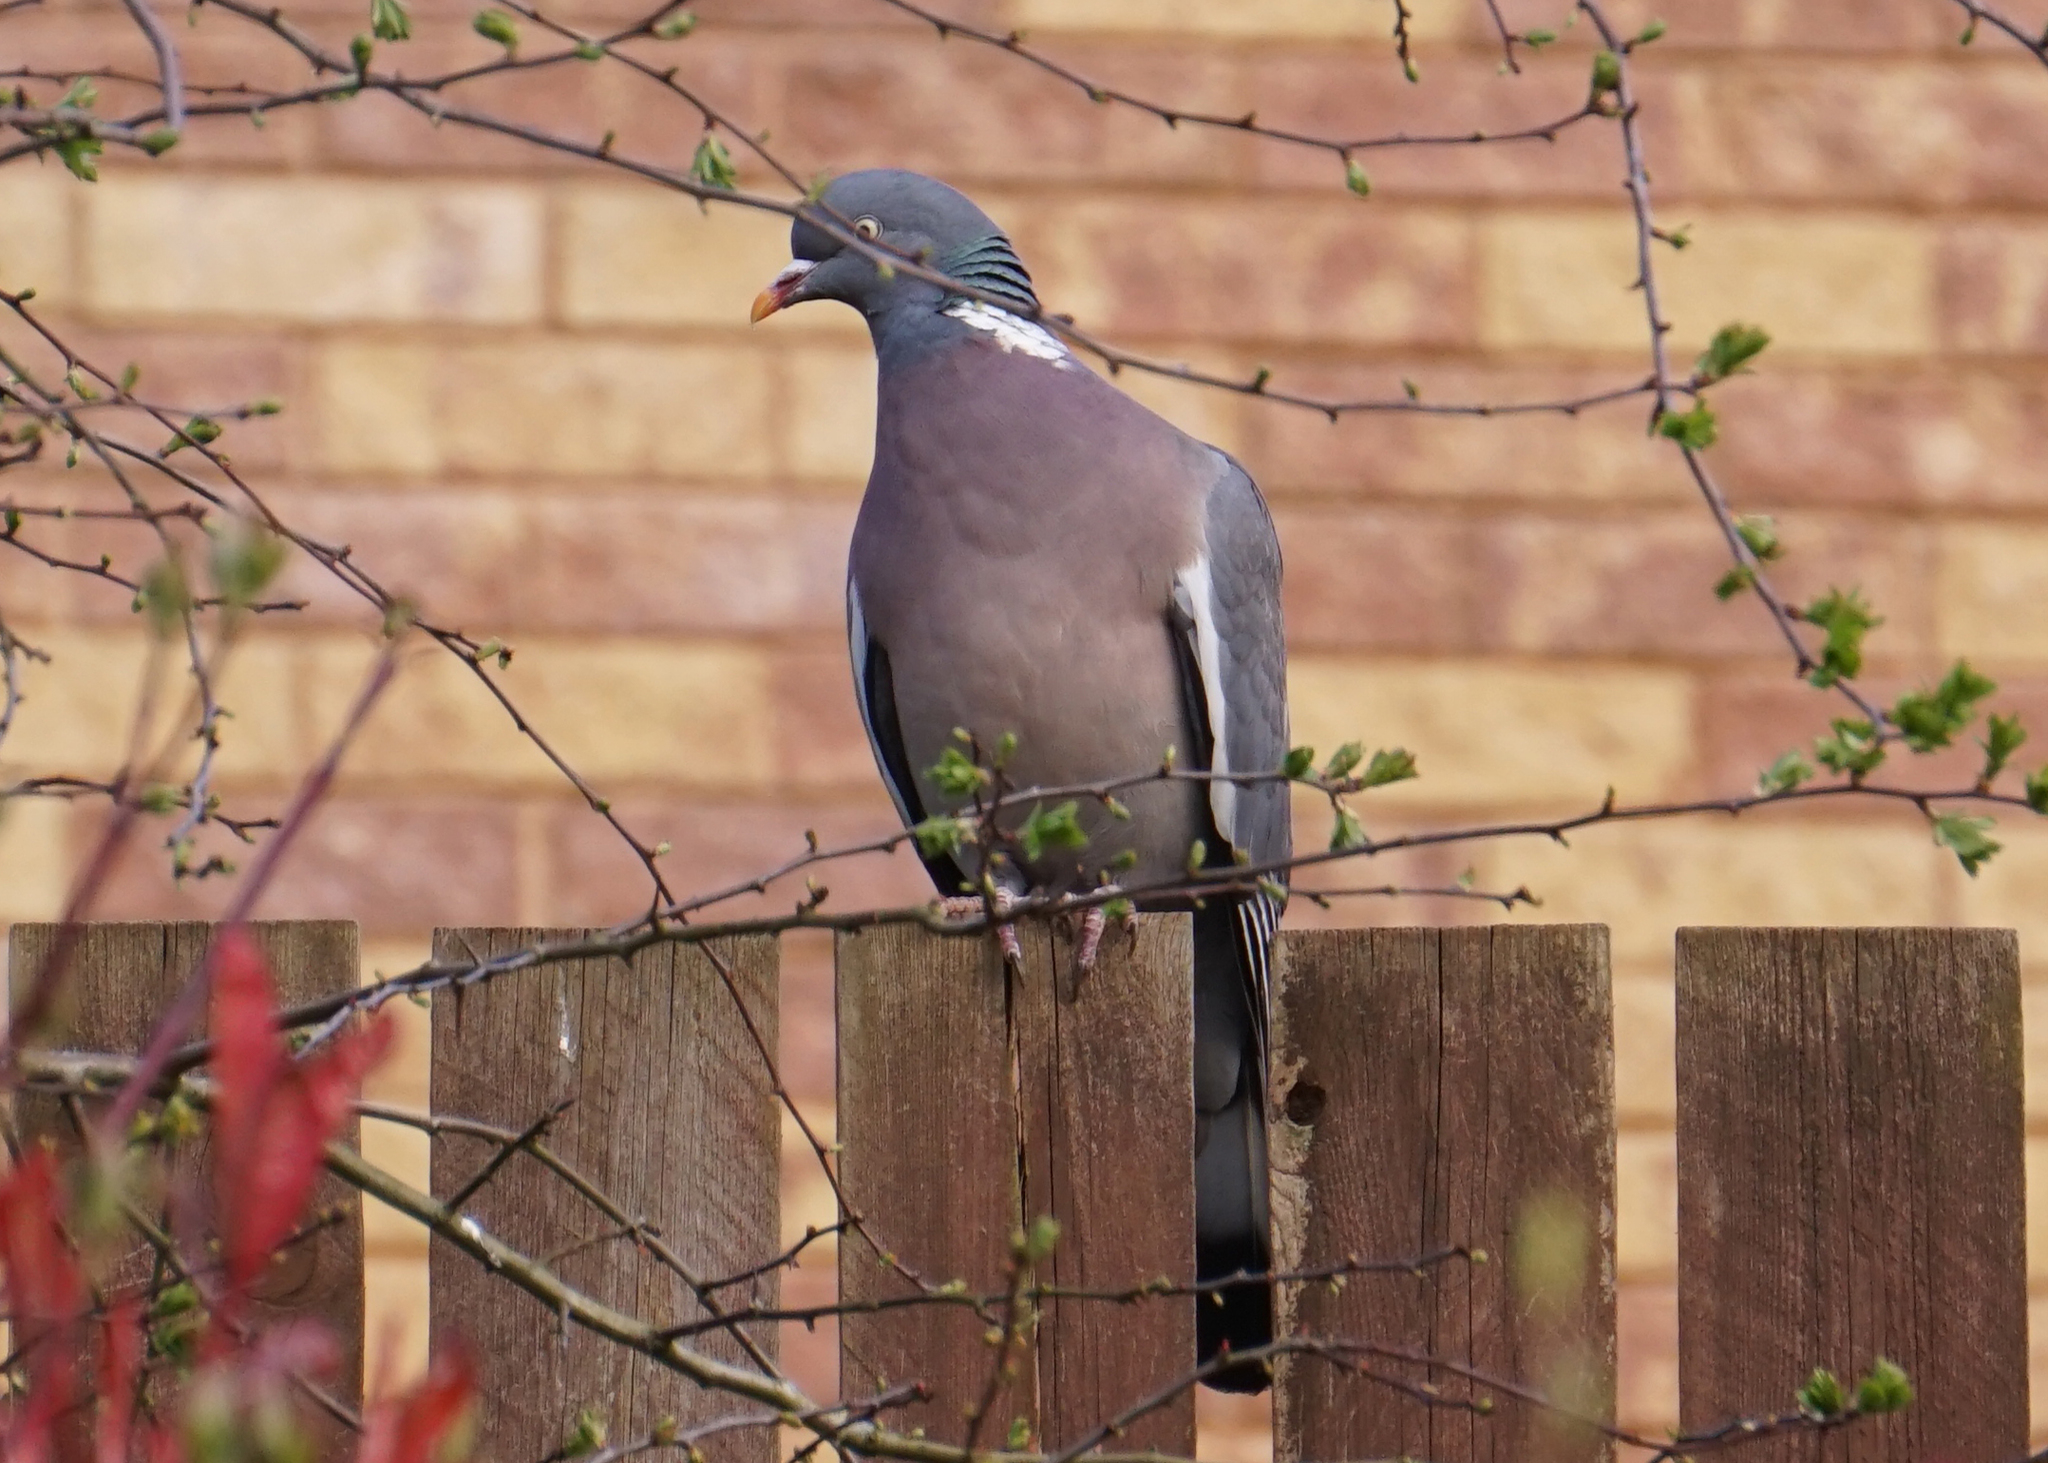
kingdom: Animalia
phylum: Chordata
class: Aves
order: Columbiformes
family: Columbidae
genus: Columba
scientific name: Columba palumbus
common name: Common wood pigeon
